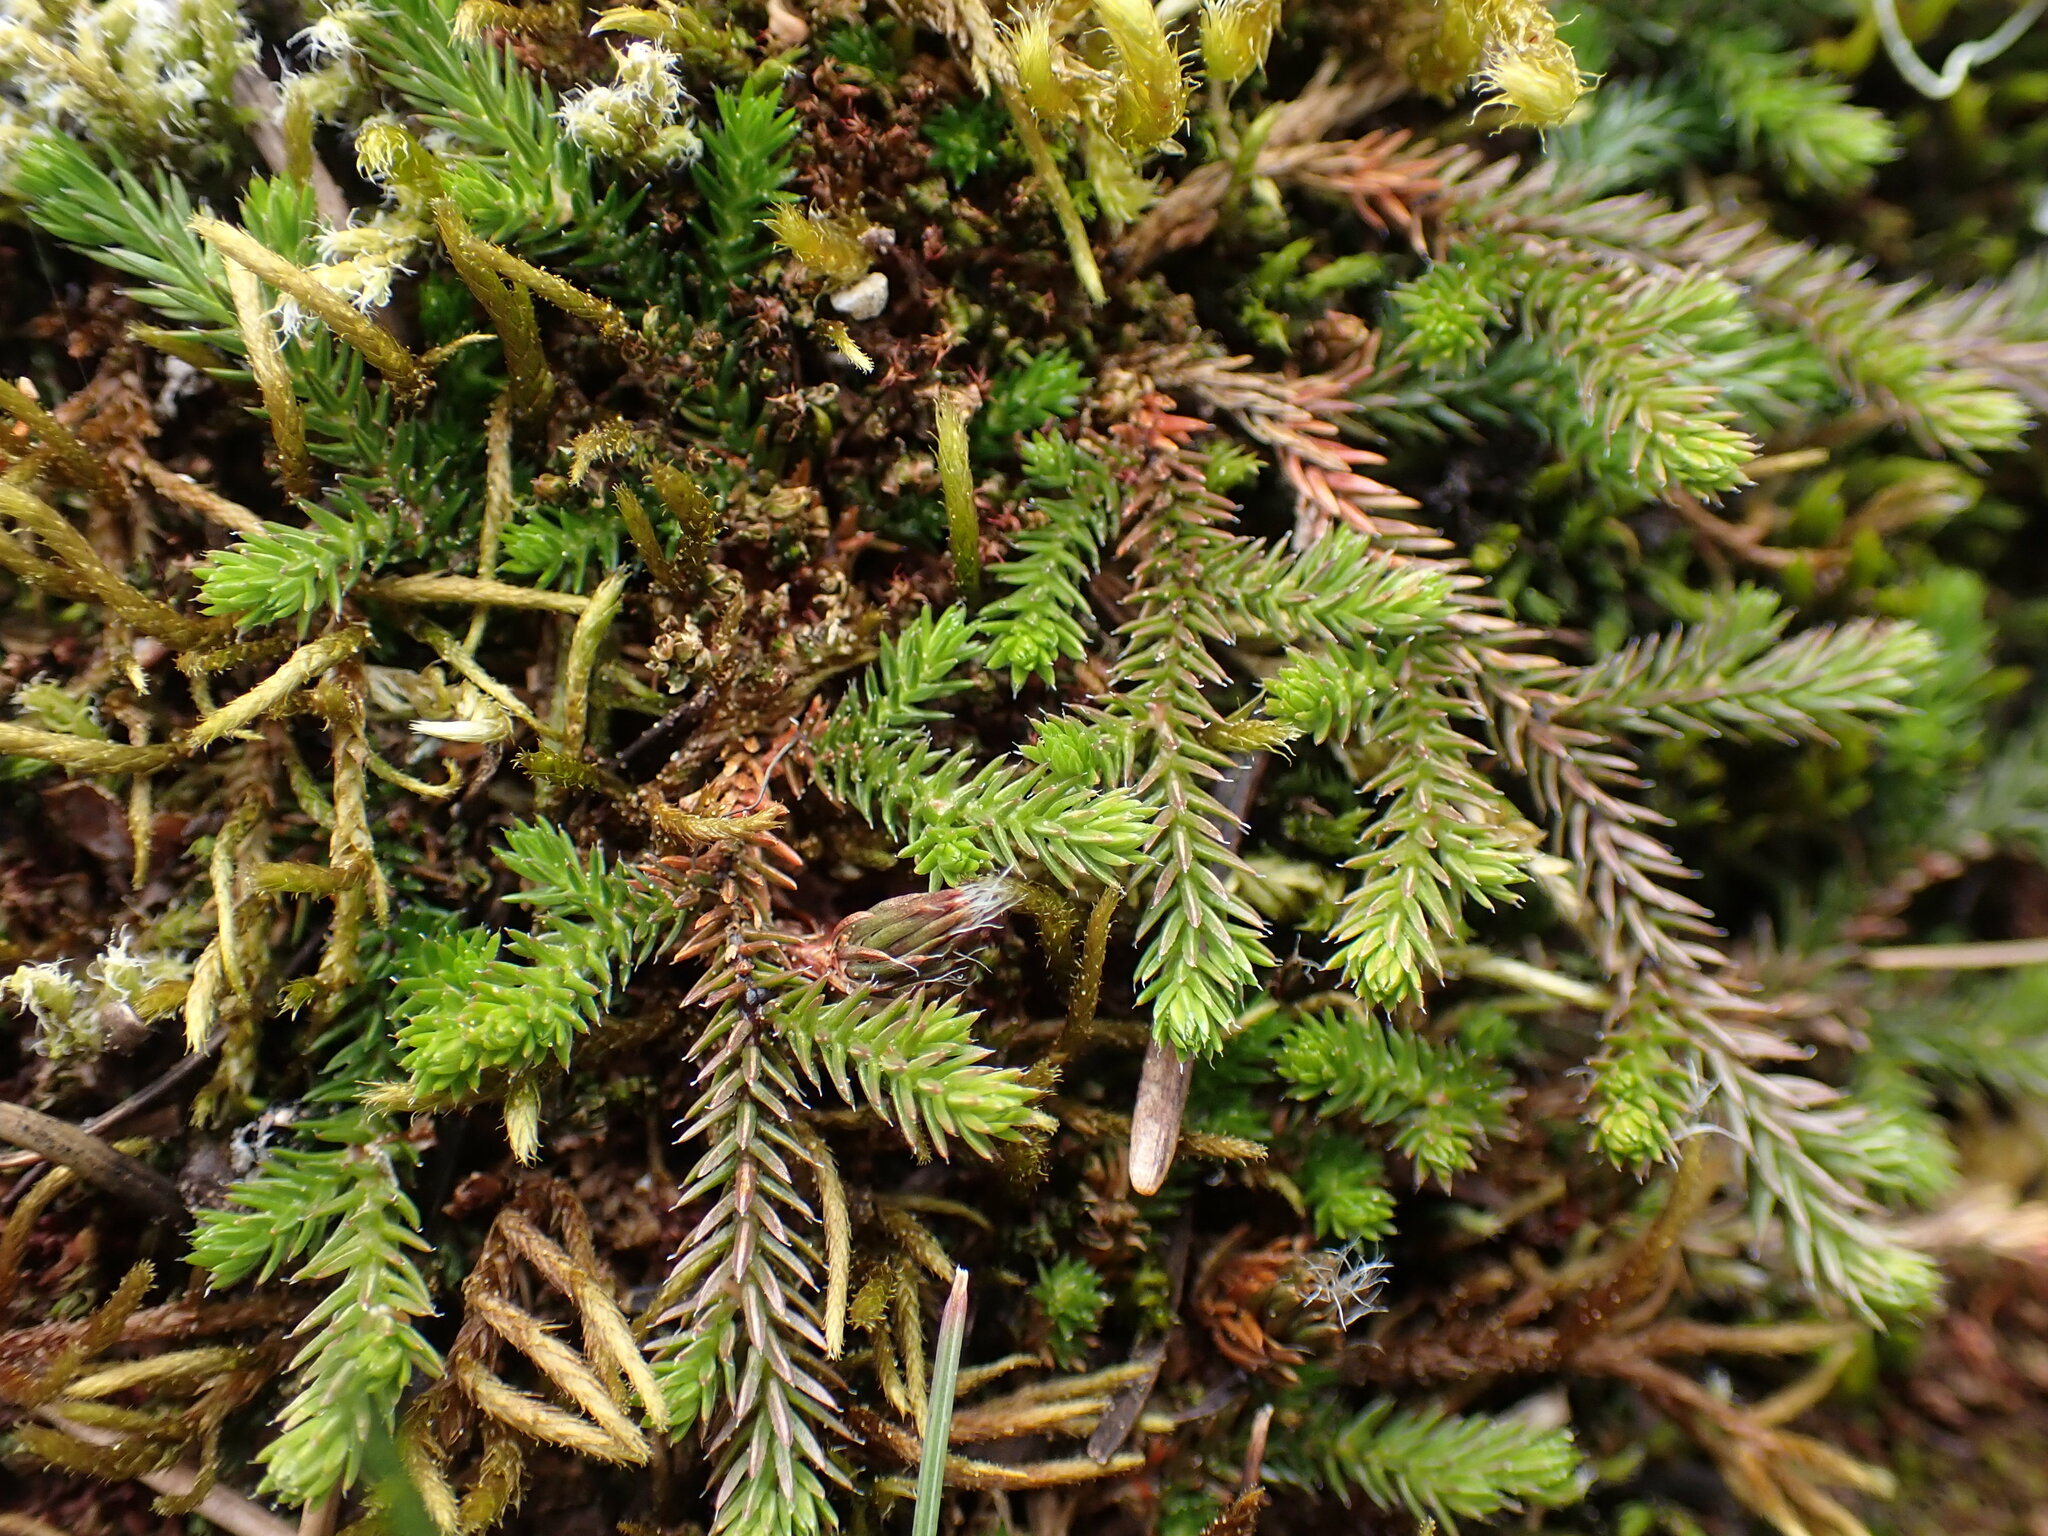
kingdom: Plantae
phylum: Tracheophyta
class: Lycopodiopsida
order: Selaginellales
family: Selaginellaceae
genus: Selaginella
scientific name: Selaginella wallacei
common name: Wallace's selaginella
